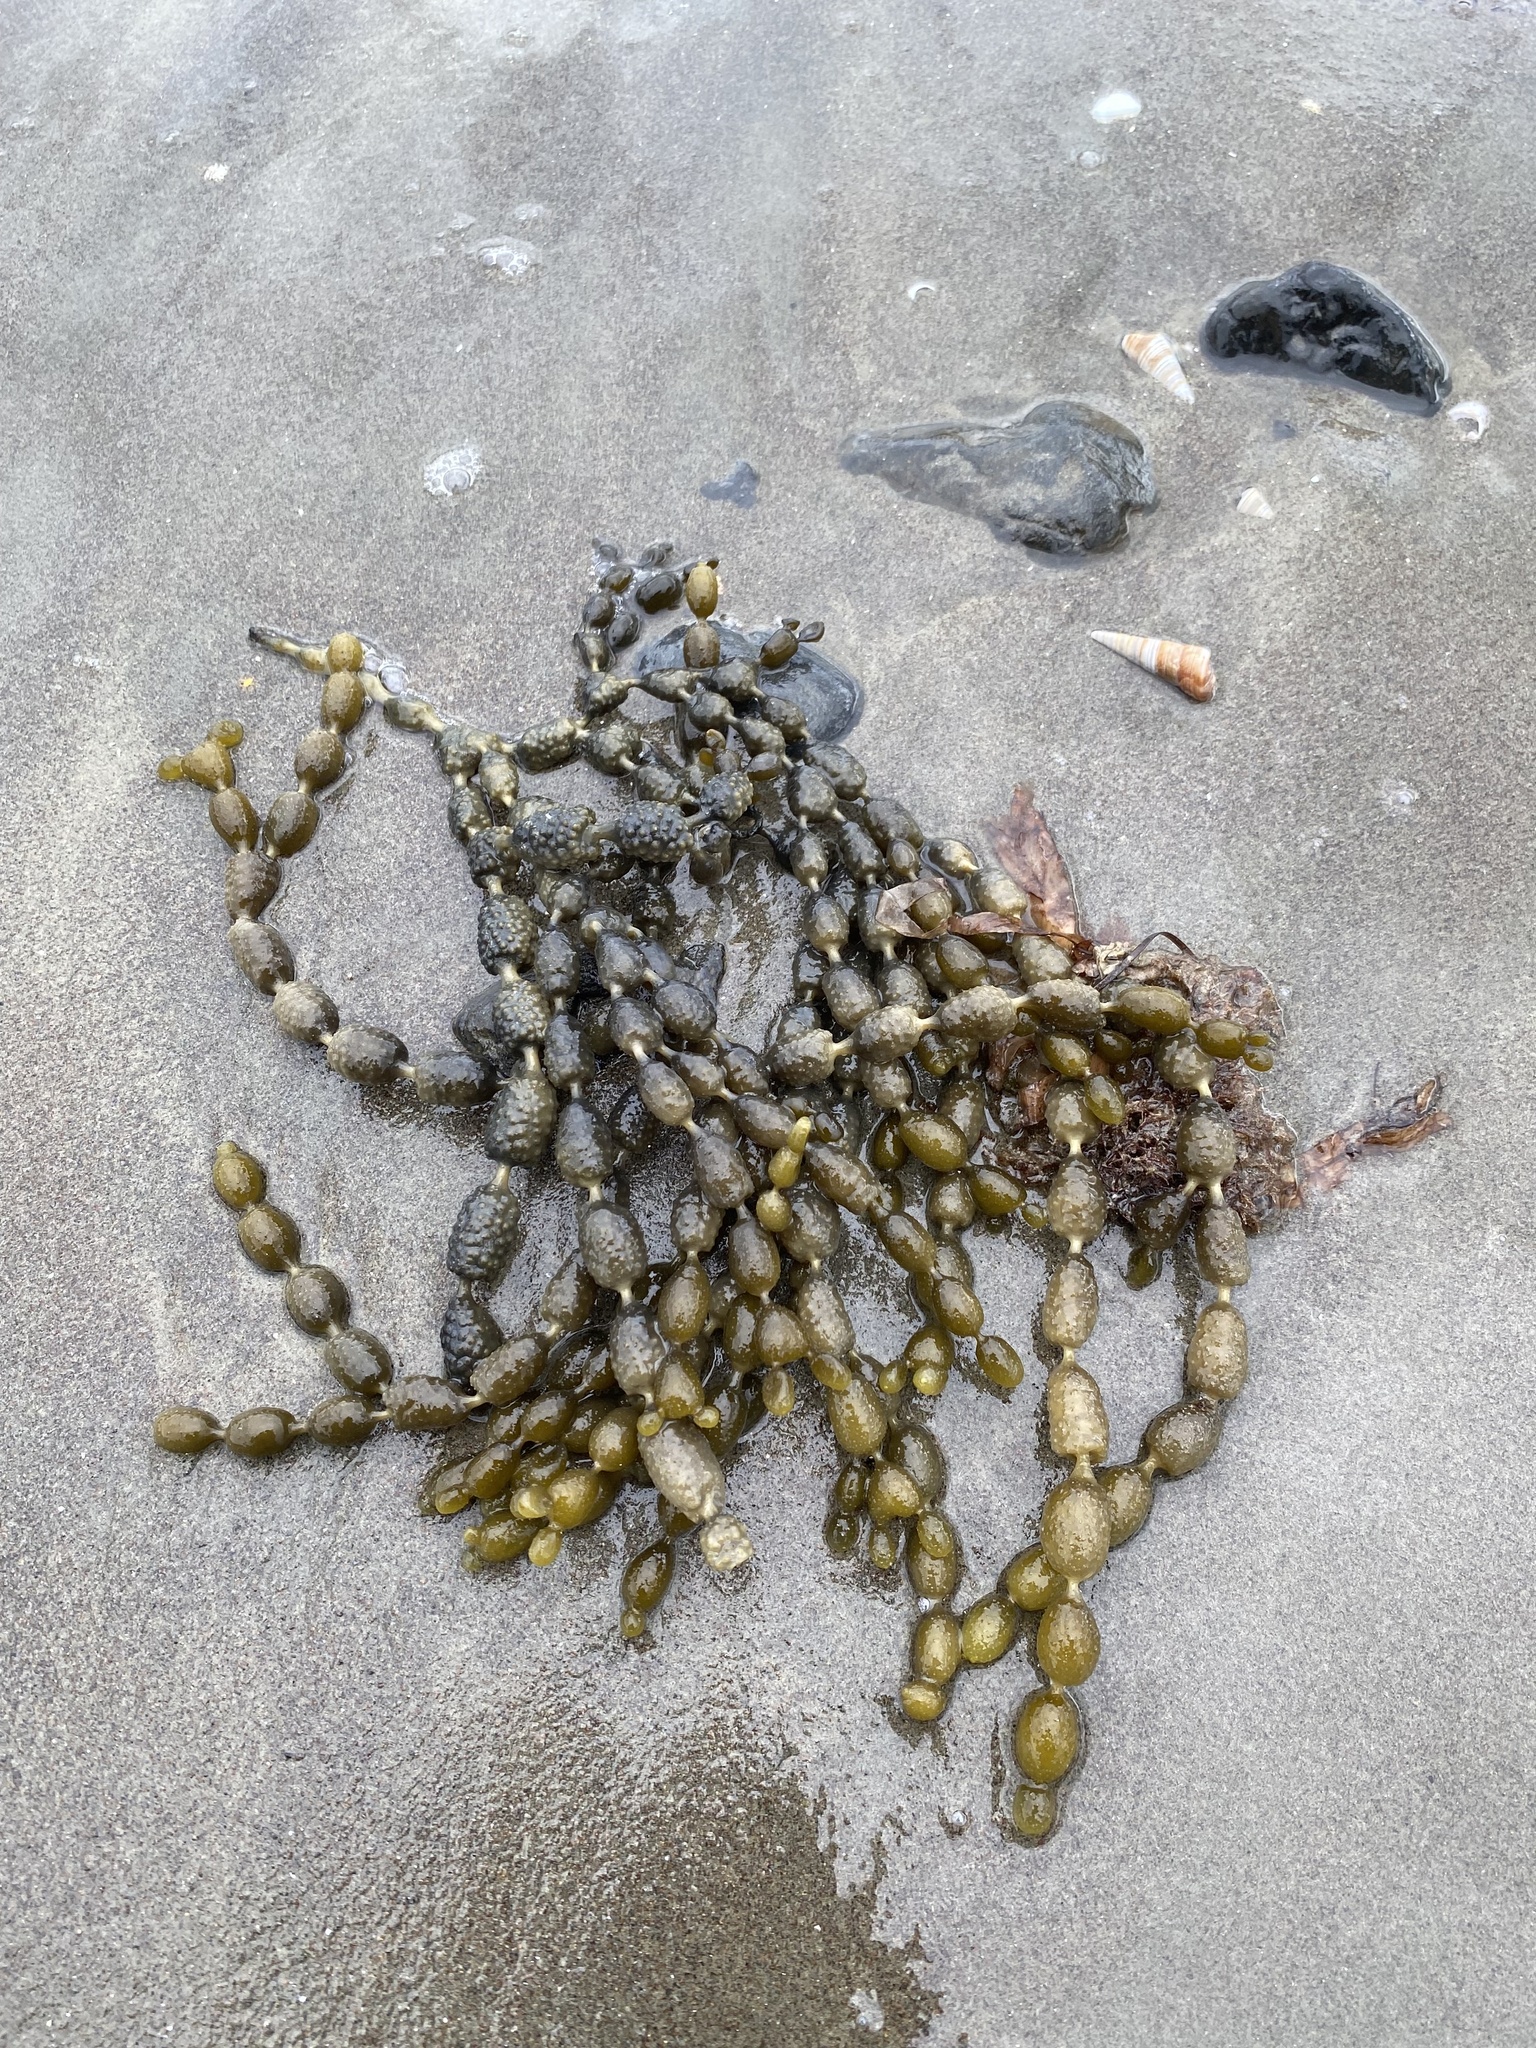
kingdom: Chromista
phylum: Ochrophyta
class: Phaeophyceae
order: Fucales
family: Hormosiraceae
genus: Hormosira
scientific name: Hormosira banksii
